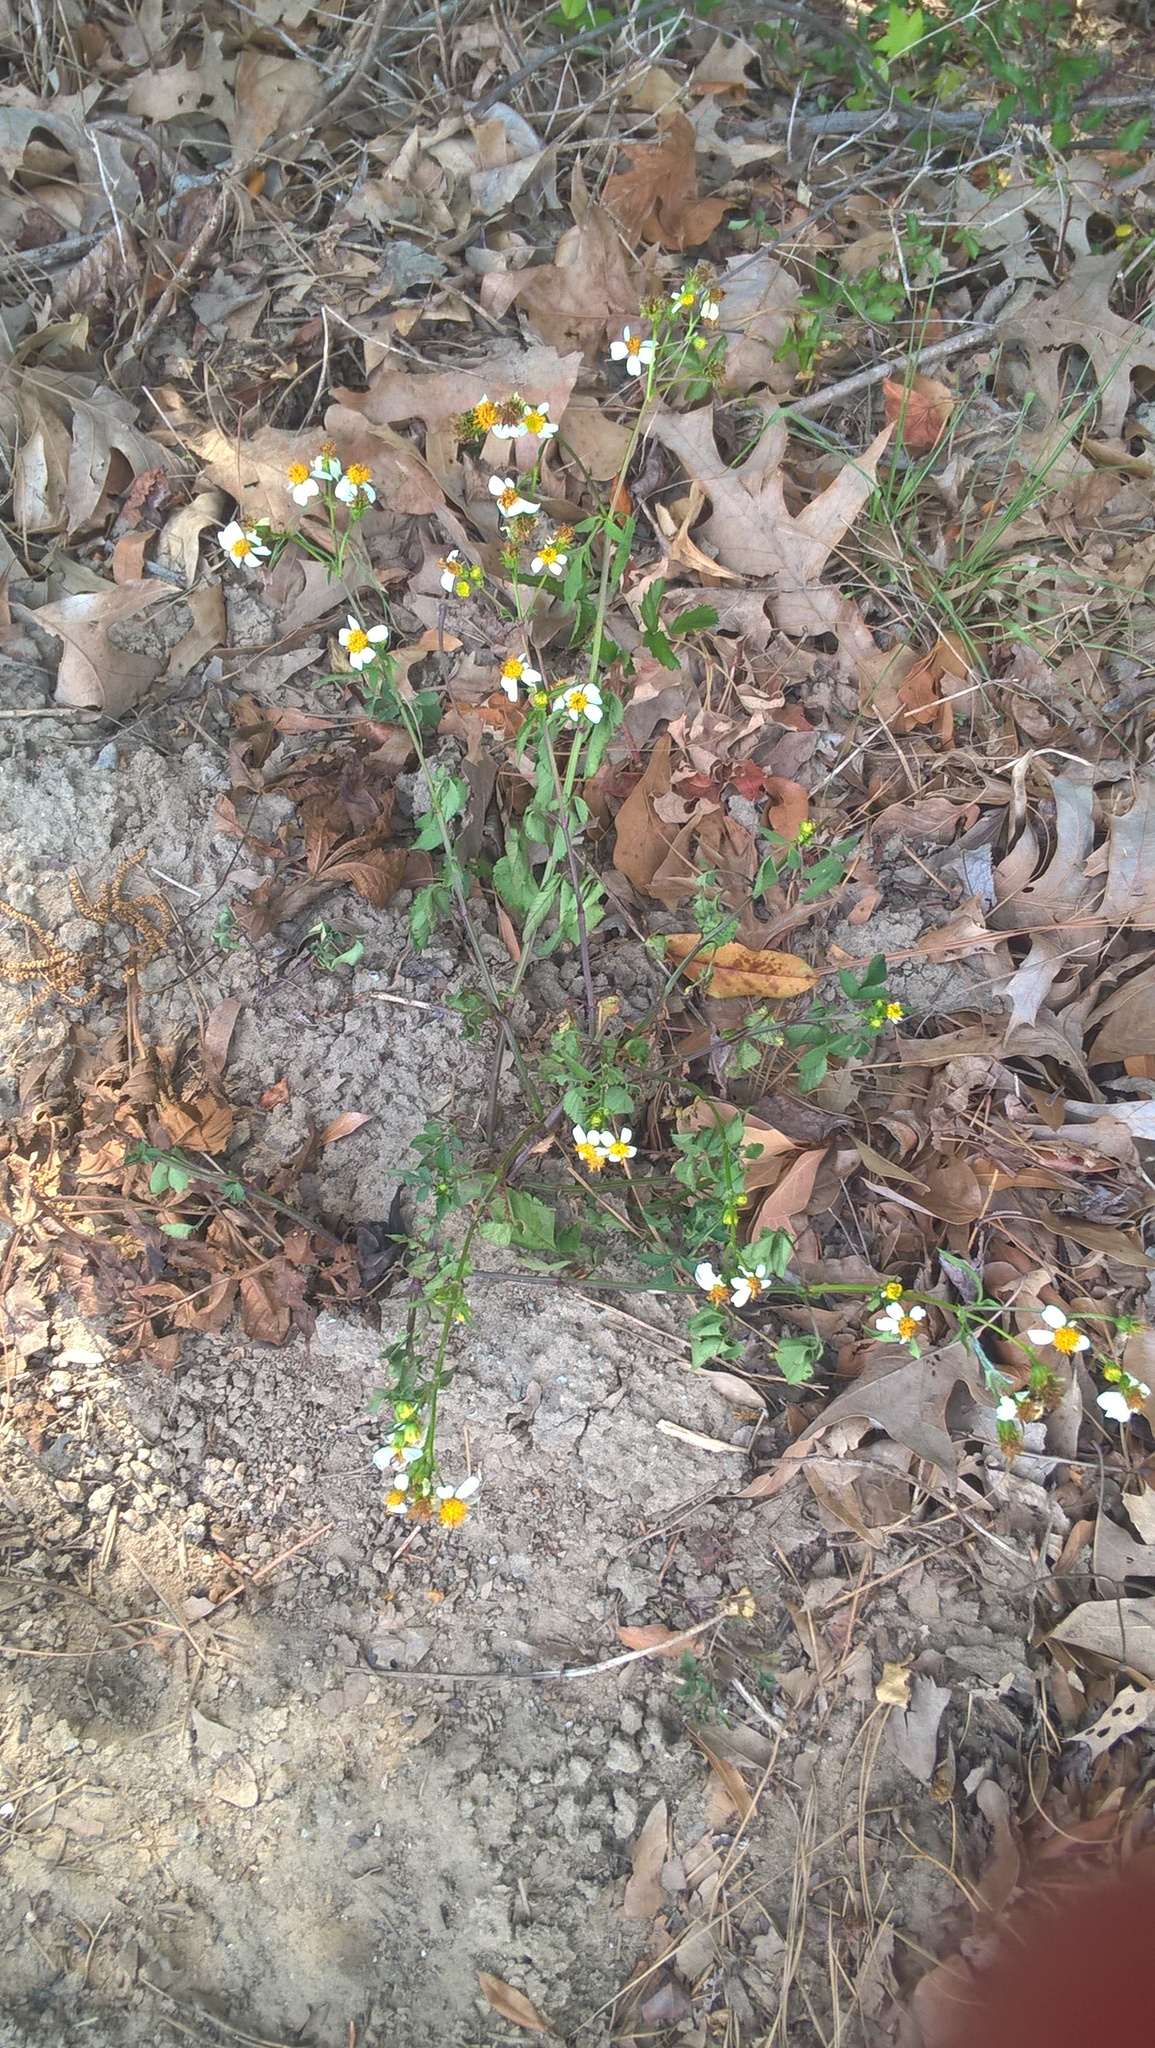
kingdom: Plantae
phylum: Tracheophyta
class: Magnoliopsida
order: Asterales
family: Asteraceae
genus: Bidens
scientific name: Bidens alba
